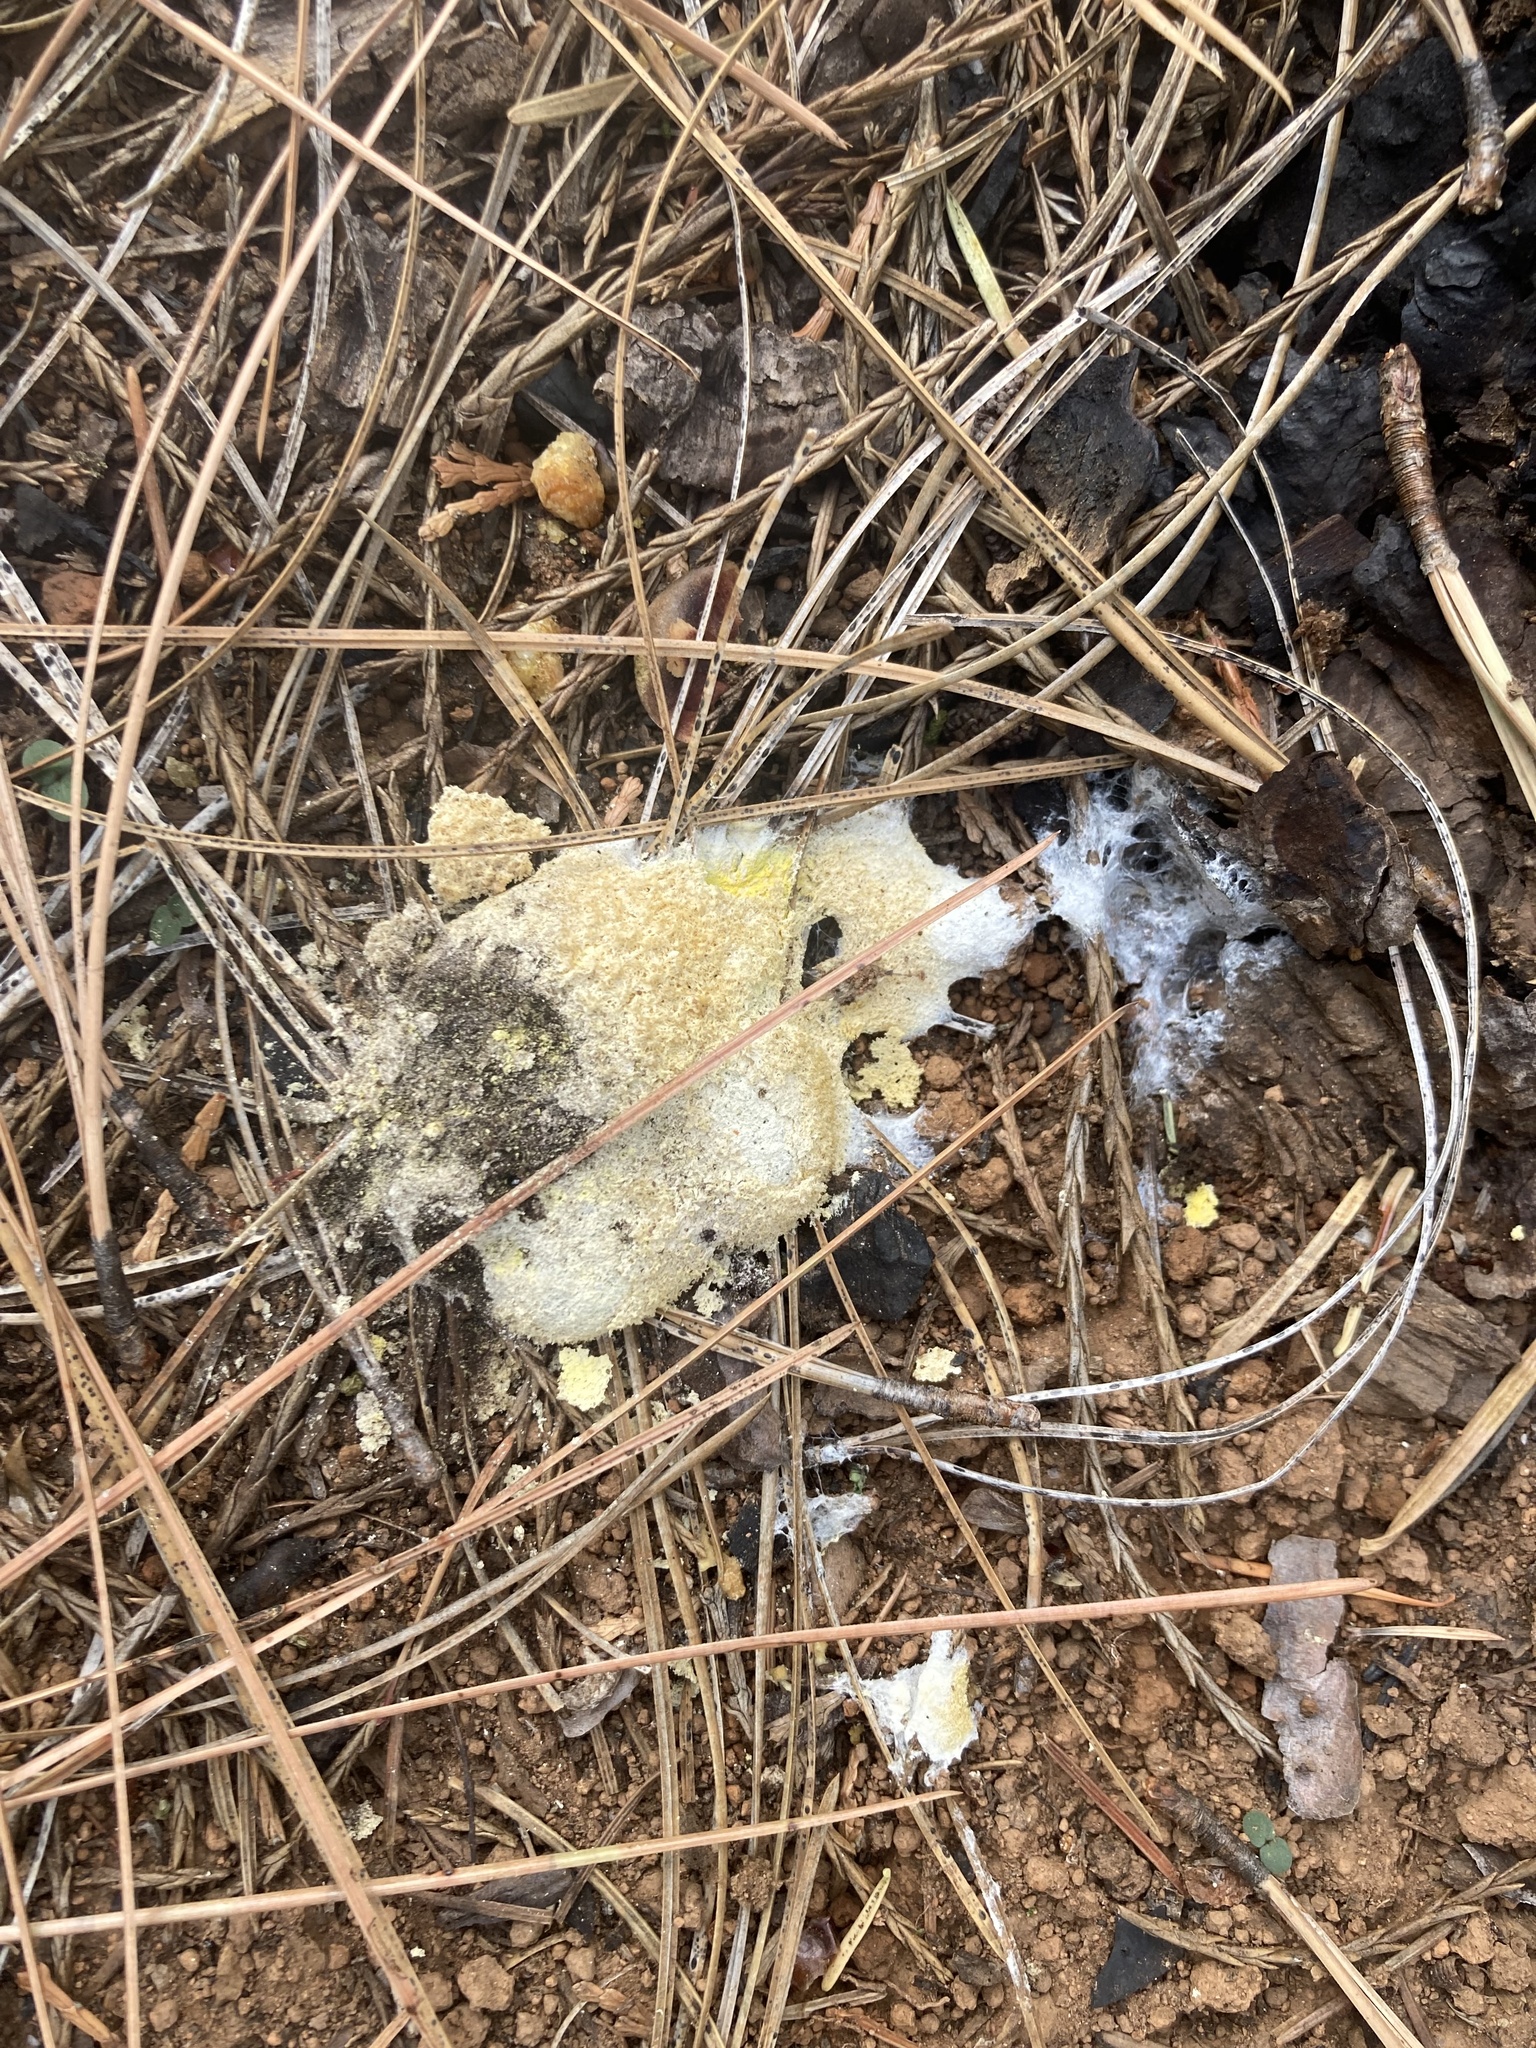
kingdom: Protozoa
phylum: Mycetozoa
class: Myxomycetes
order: Physarales
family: Physaraceae
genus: Fuligo
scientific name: Fuligo septica
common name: Dog vomit slime mold
